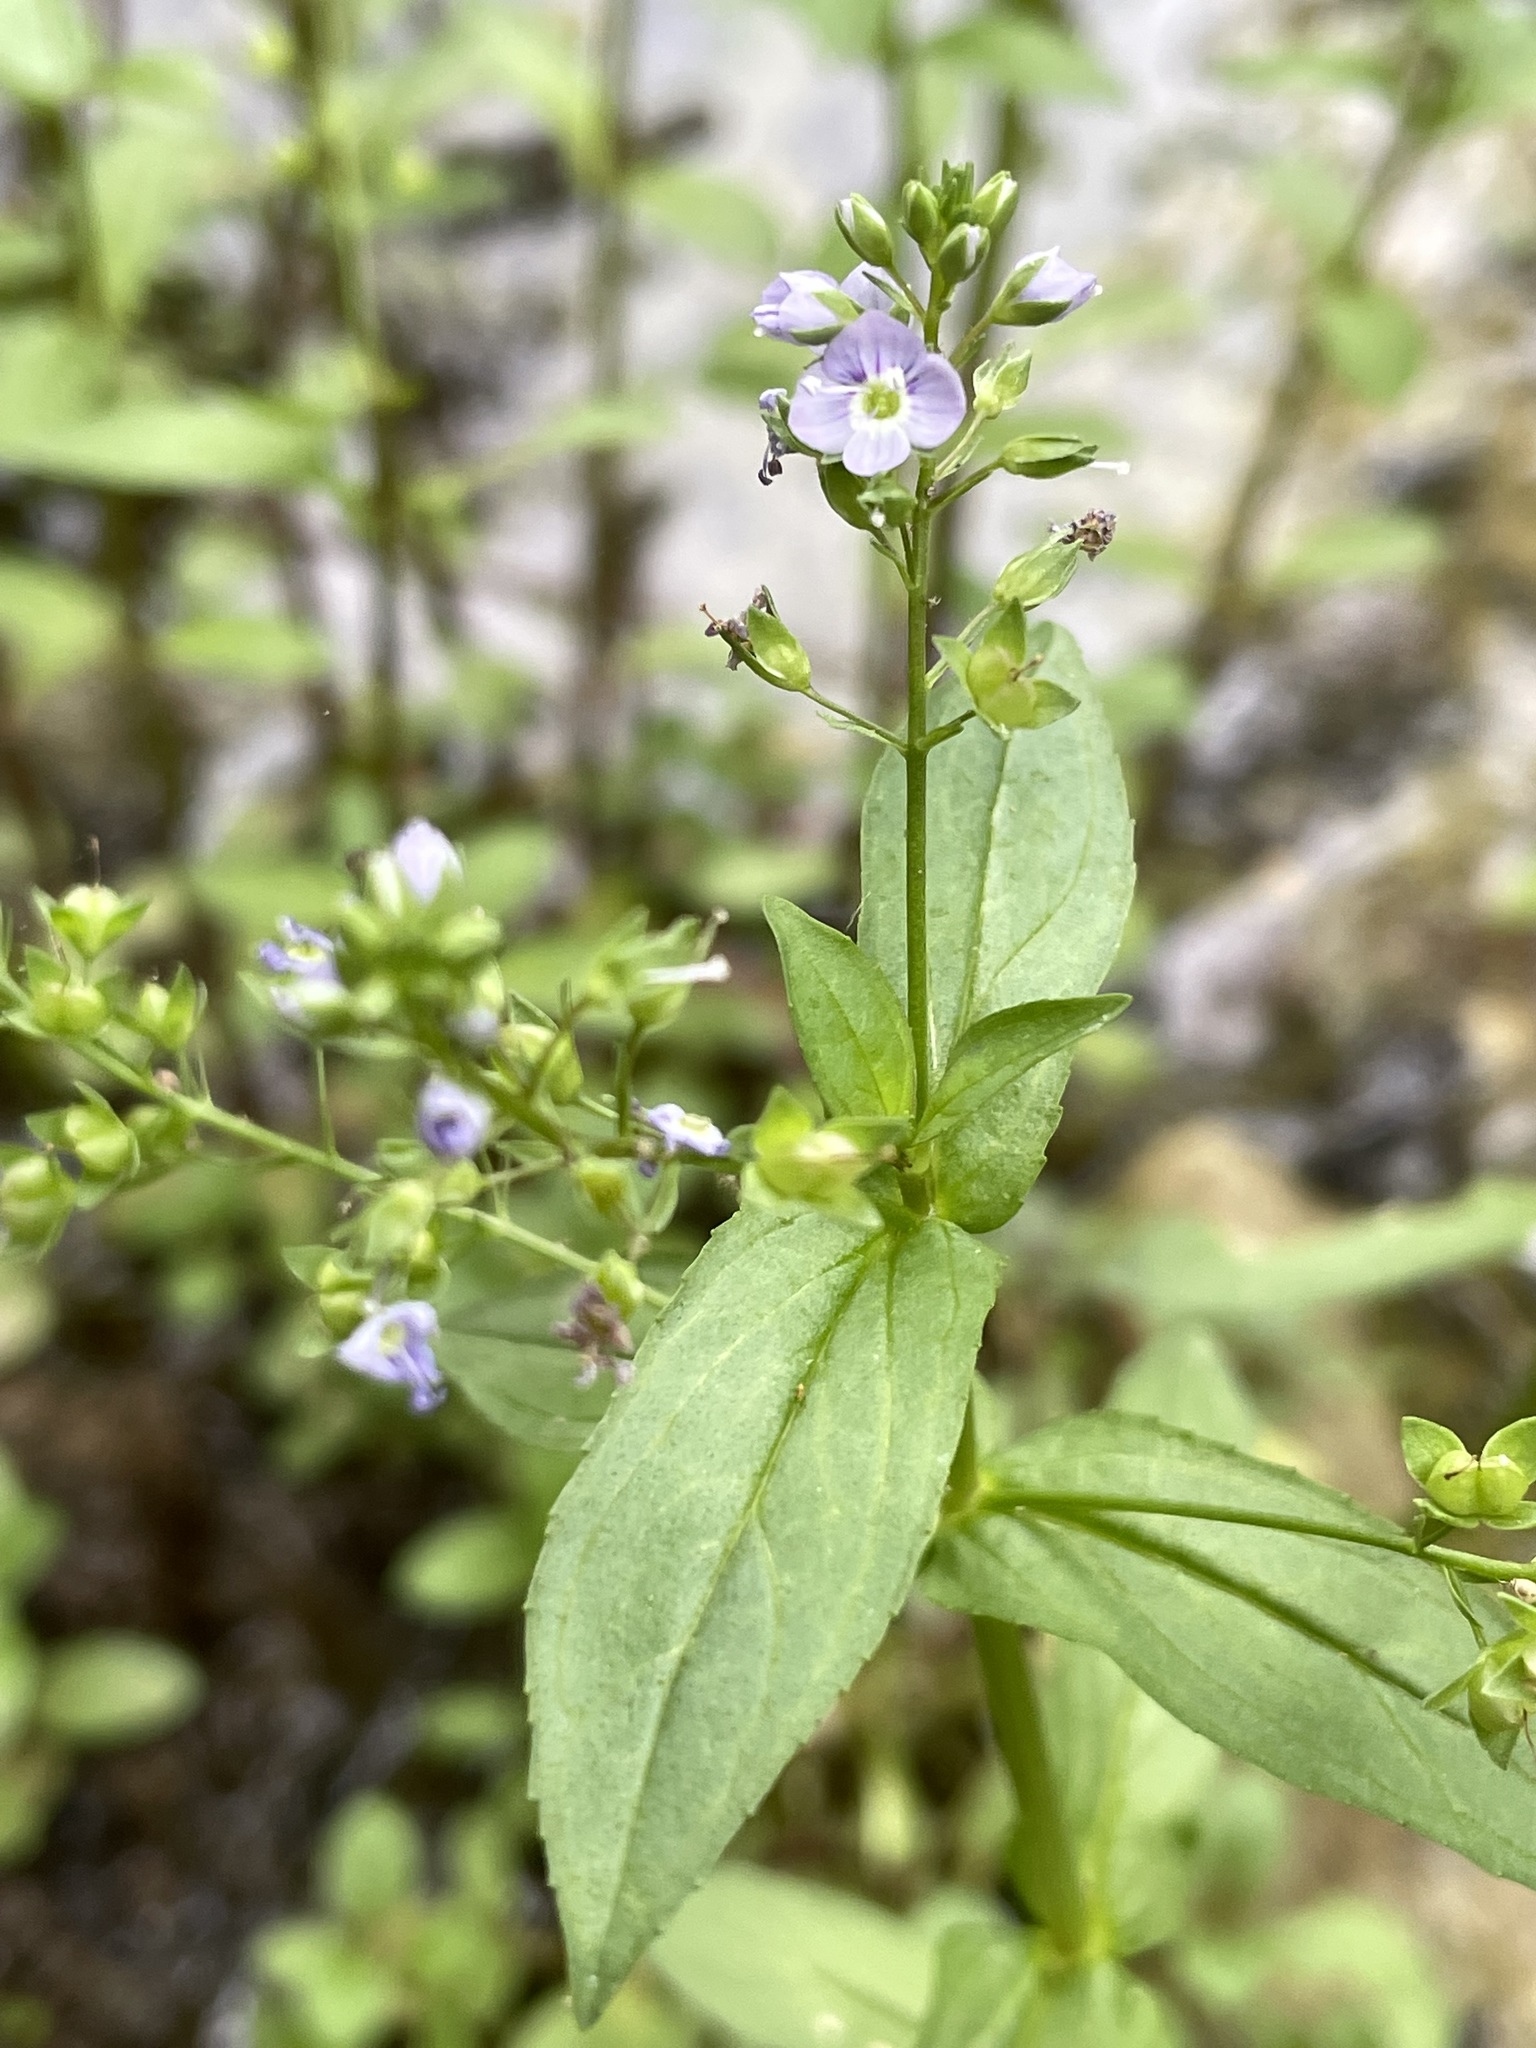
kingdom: Plantae
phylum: Tracheophyta
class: Magnoliopsida
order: Lamiales
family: Plantaginaceae
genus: Veronica
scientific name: Veronica anagallis-aquatica
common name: Water speedwell
